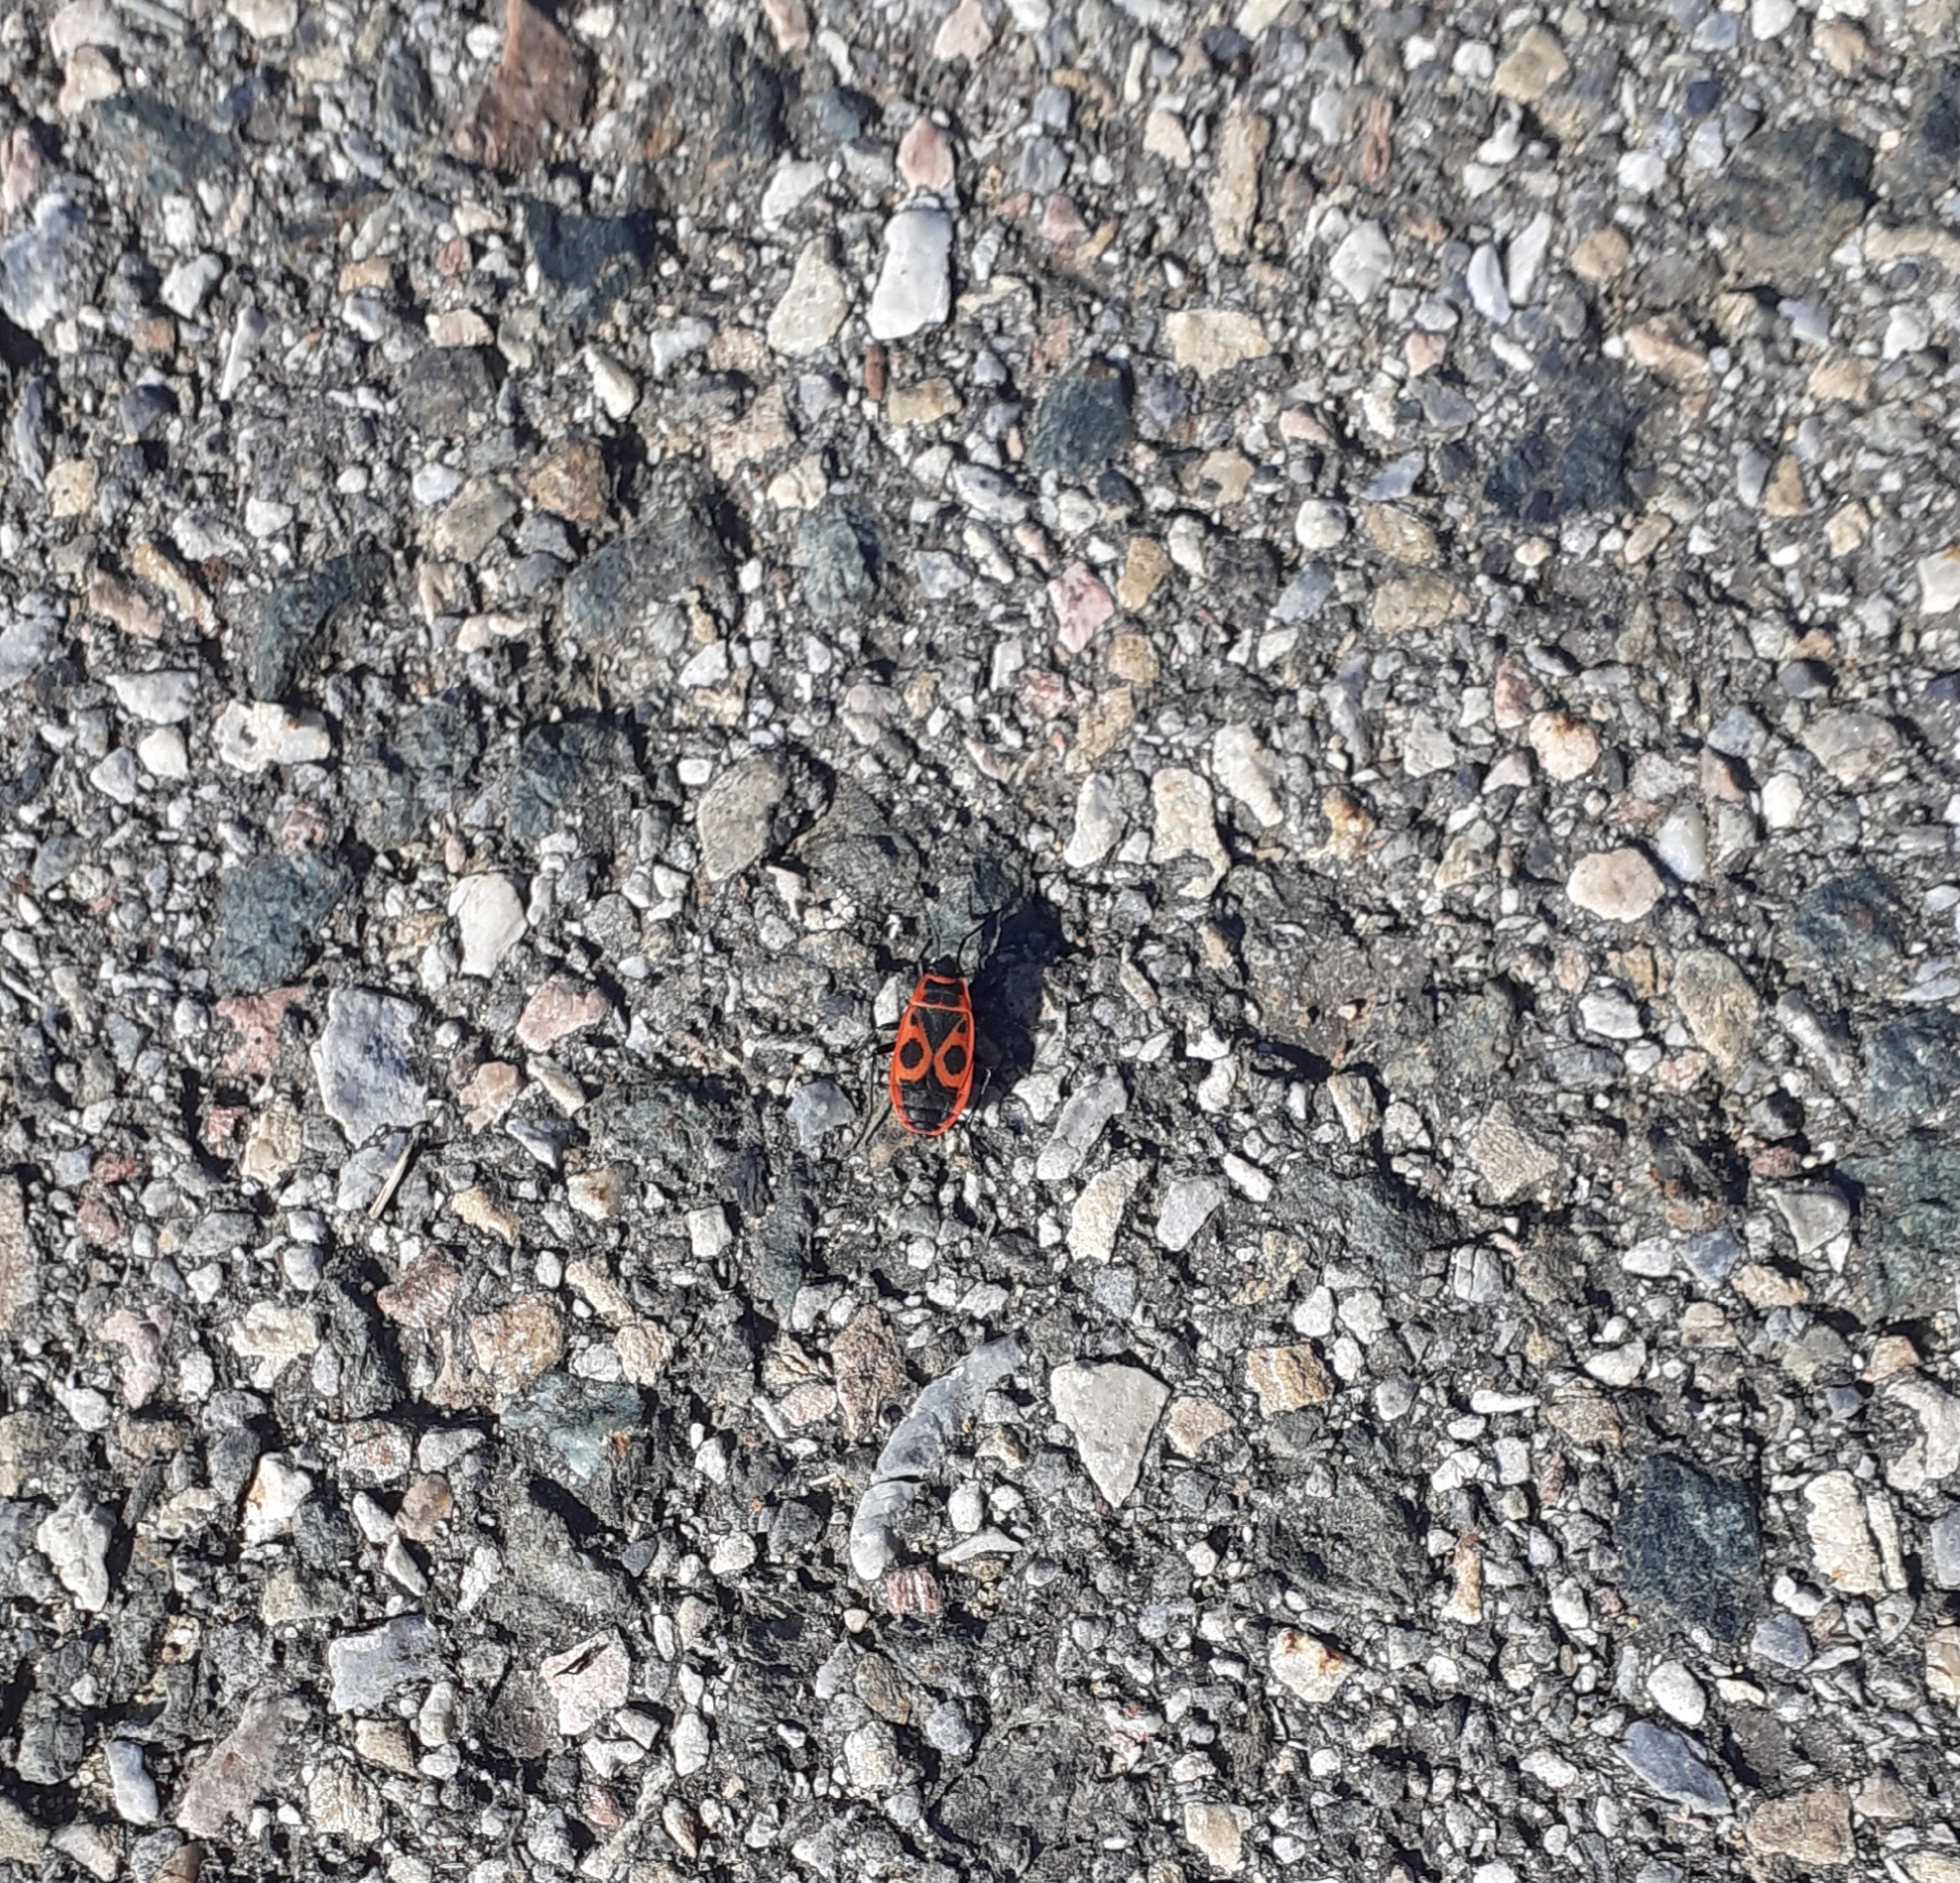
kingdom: Animalia
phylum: Arthropoda
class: Insecta
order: Hemiptera
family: Pyrrhocoridae
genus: Pyrrhocoris
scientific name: Pyrrhocoris apterus
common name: Firebug
